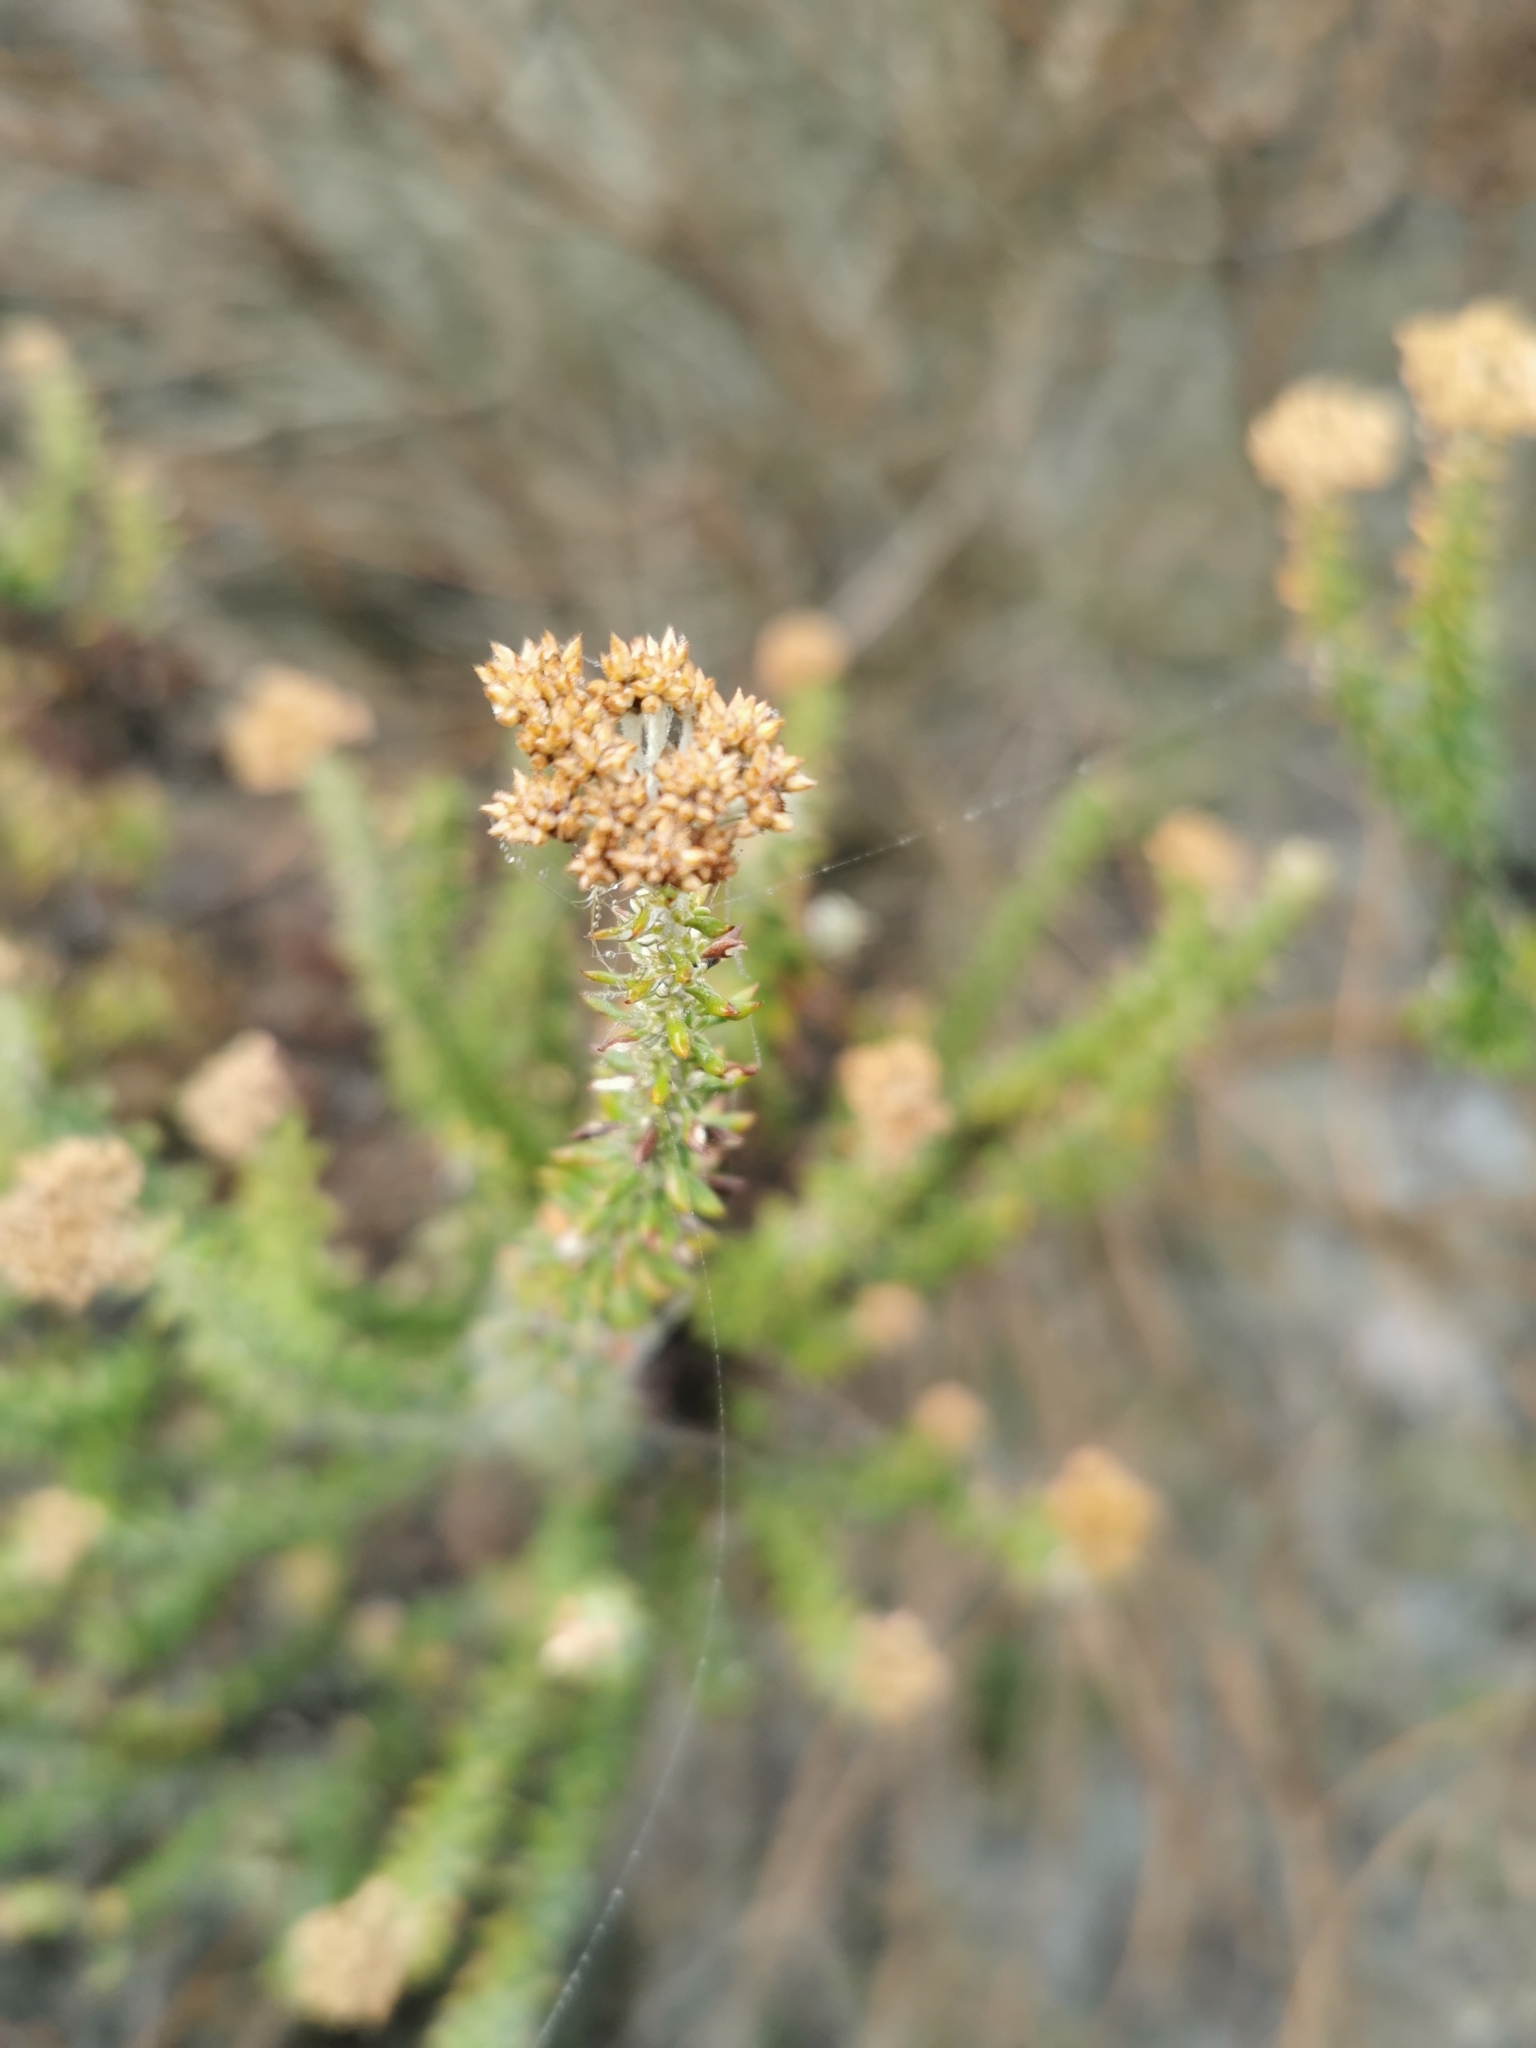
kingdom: Plantae
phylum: Tracheophyta
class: Magnoliopsida
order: Asterales
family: Asteraceae
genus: Metalasia
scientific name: Metalasia densa
